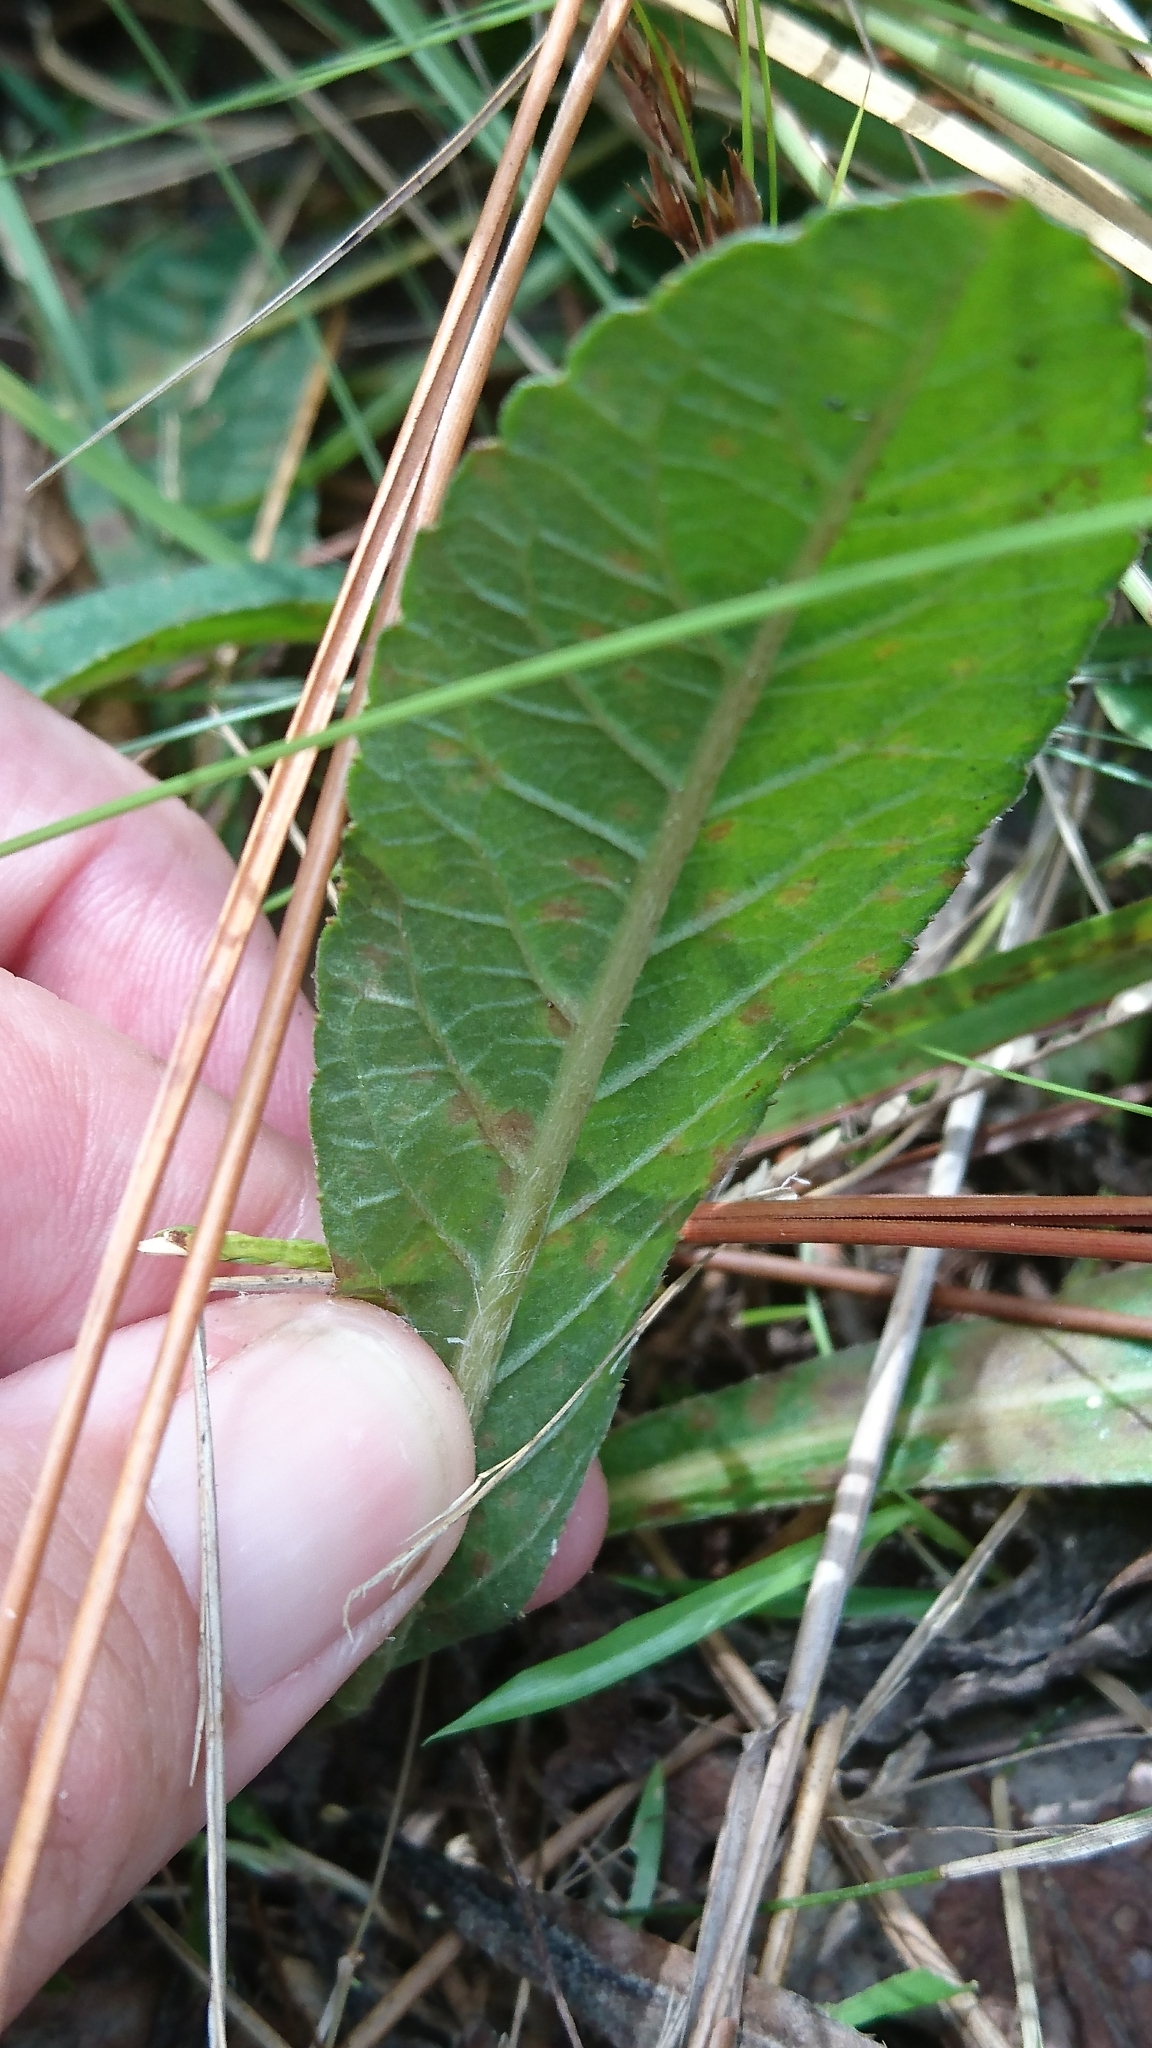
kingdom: Plantae
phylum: Tracheophyta
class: Magnoliopsida
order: Asterales
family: Asteraceae
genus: Elephantopus
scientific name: Elephantopus tomentosus
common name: Tobacco-weed
